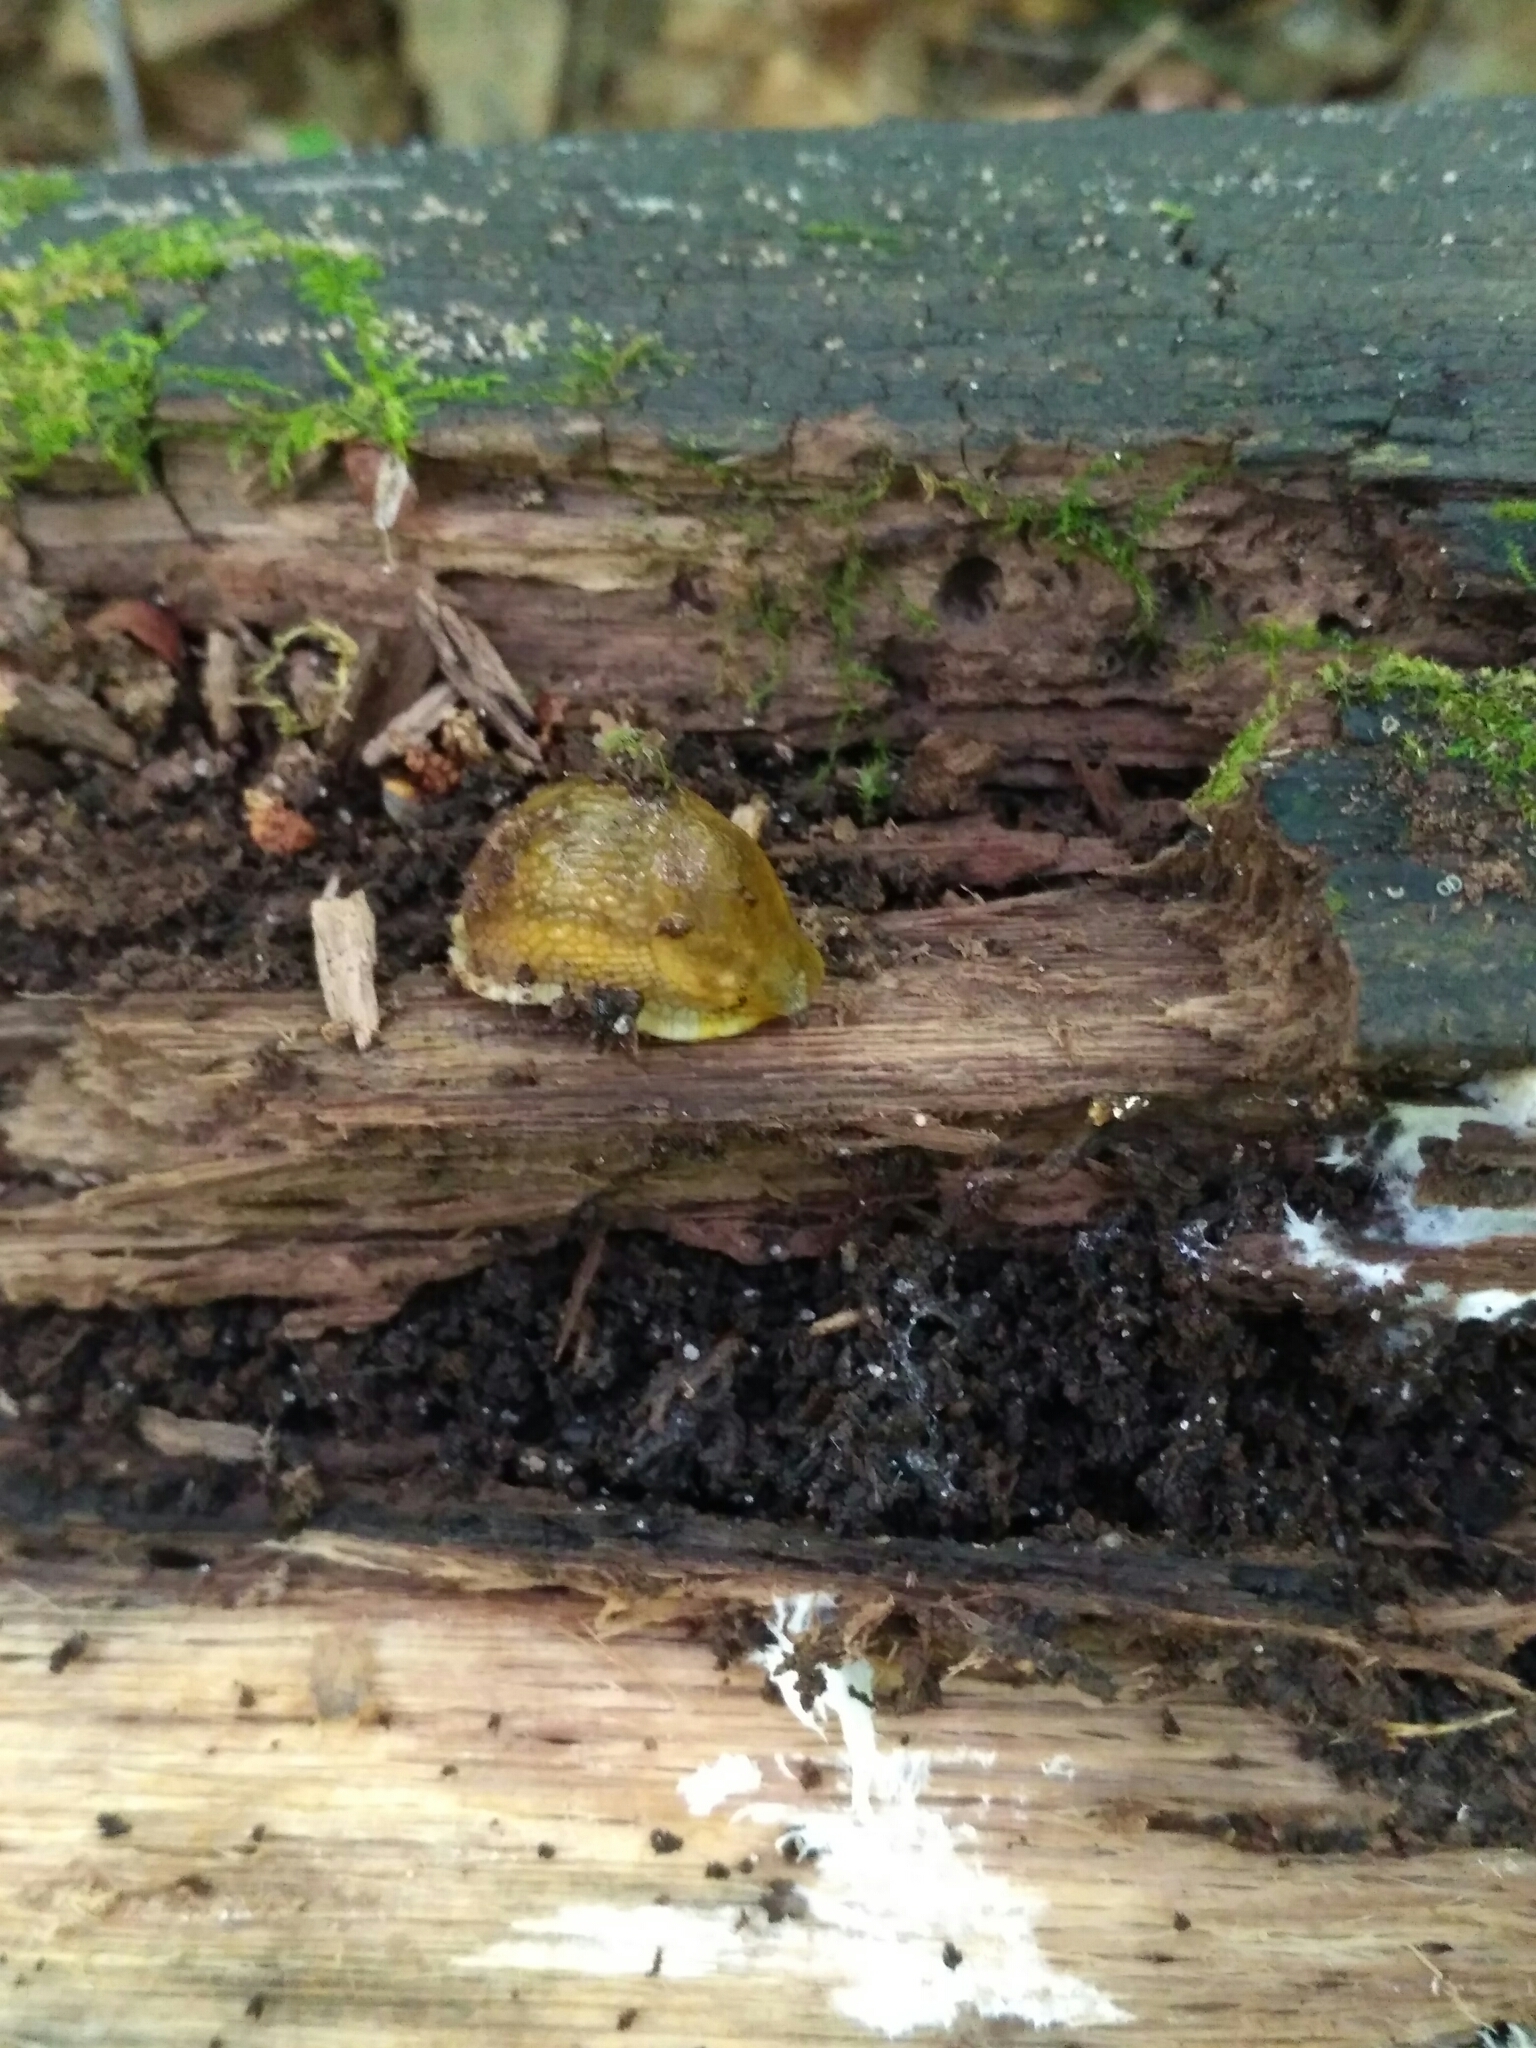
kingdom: Animalia
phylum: Mollusca
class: Gastropoda
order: Stylommatophora
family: Arionidae
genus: Arion
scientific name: Arion fuscus
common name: Northern dusky slug
